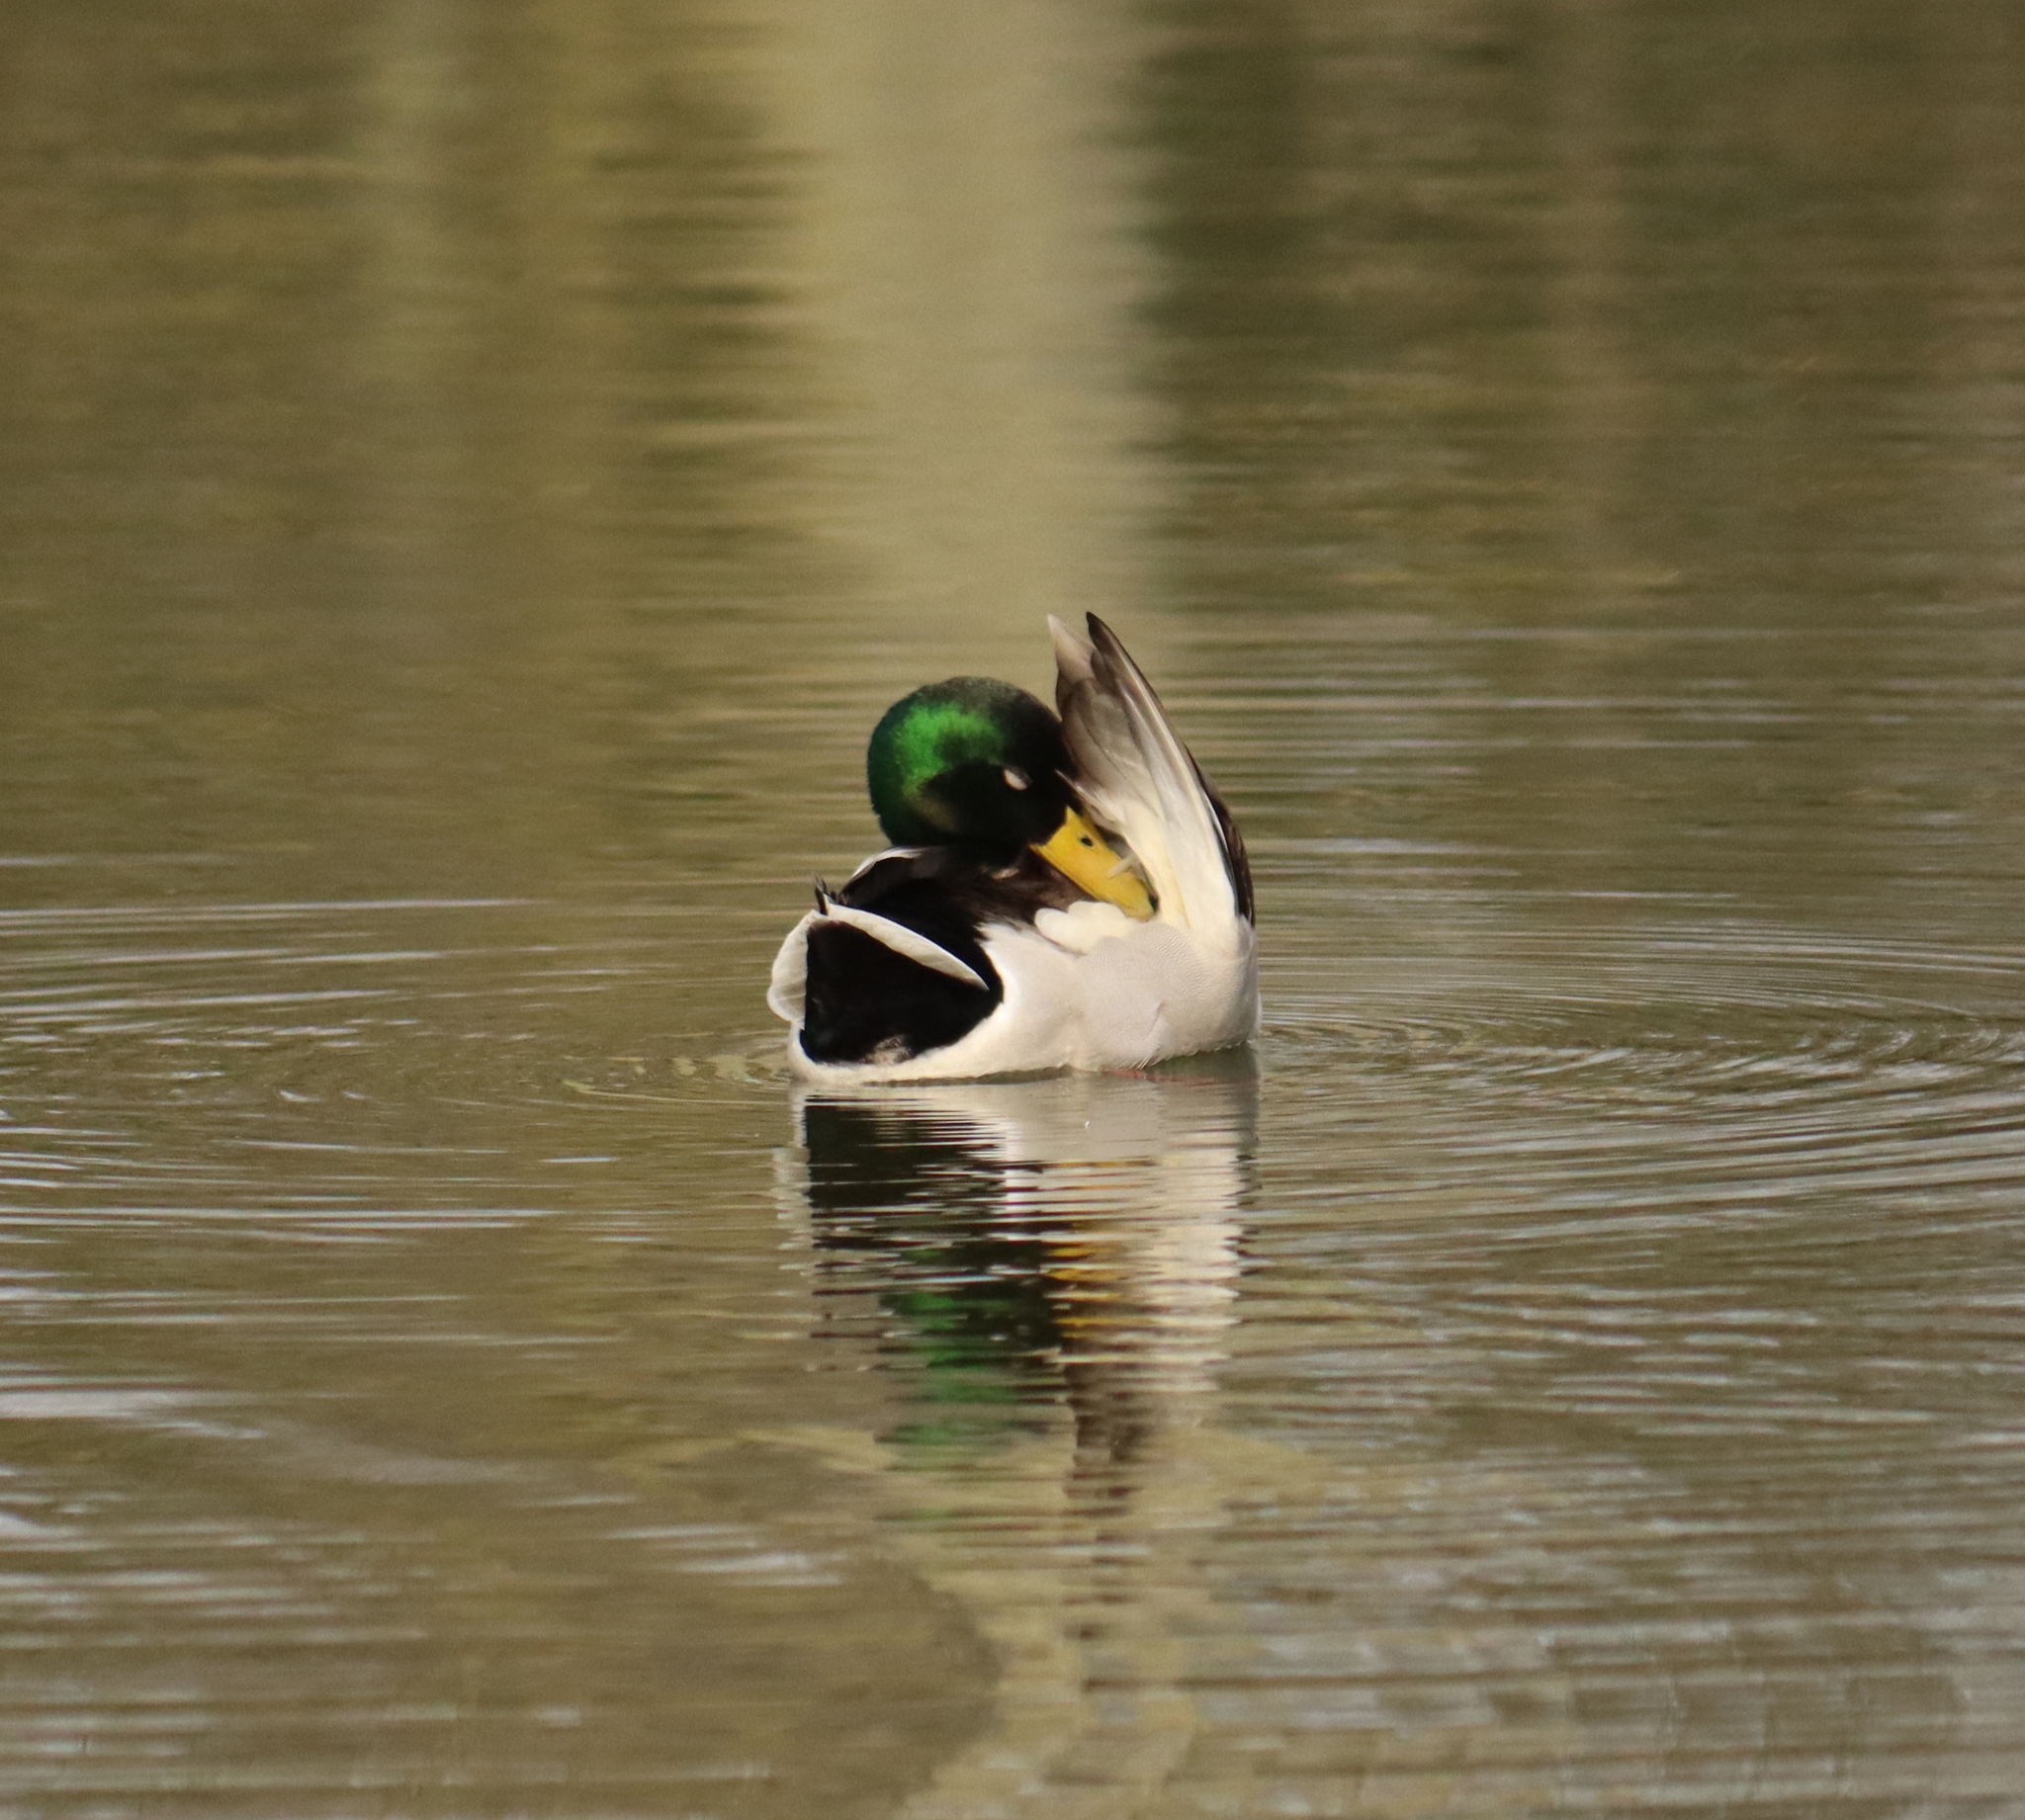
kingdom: Animalia
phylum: Chordata
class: Aves
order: Anseriformes
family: Anatidae
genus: Anas
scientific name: Anas platyrhynchos
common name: Mallard
